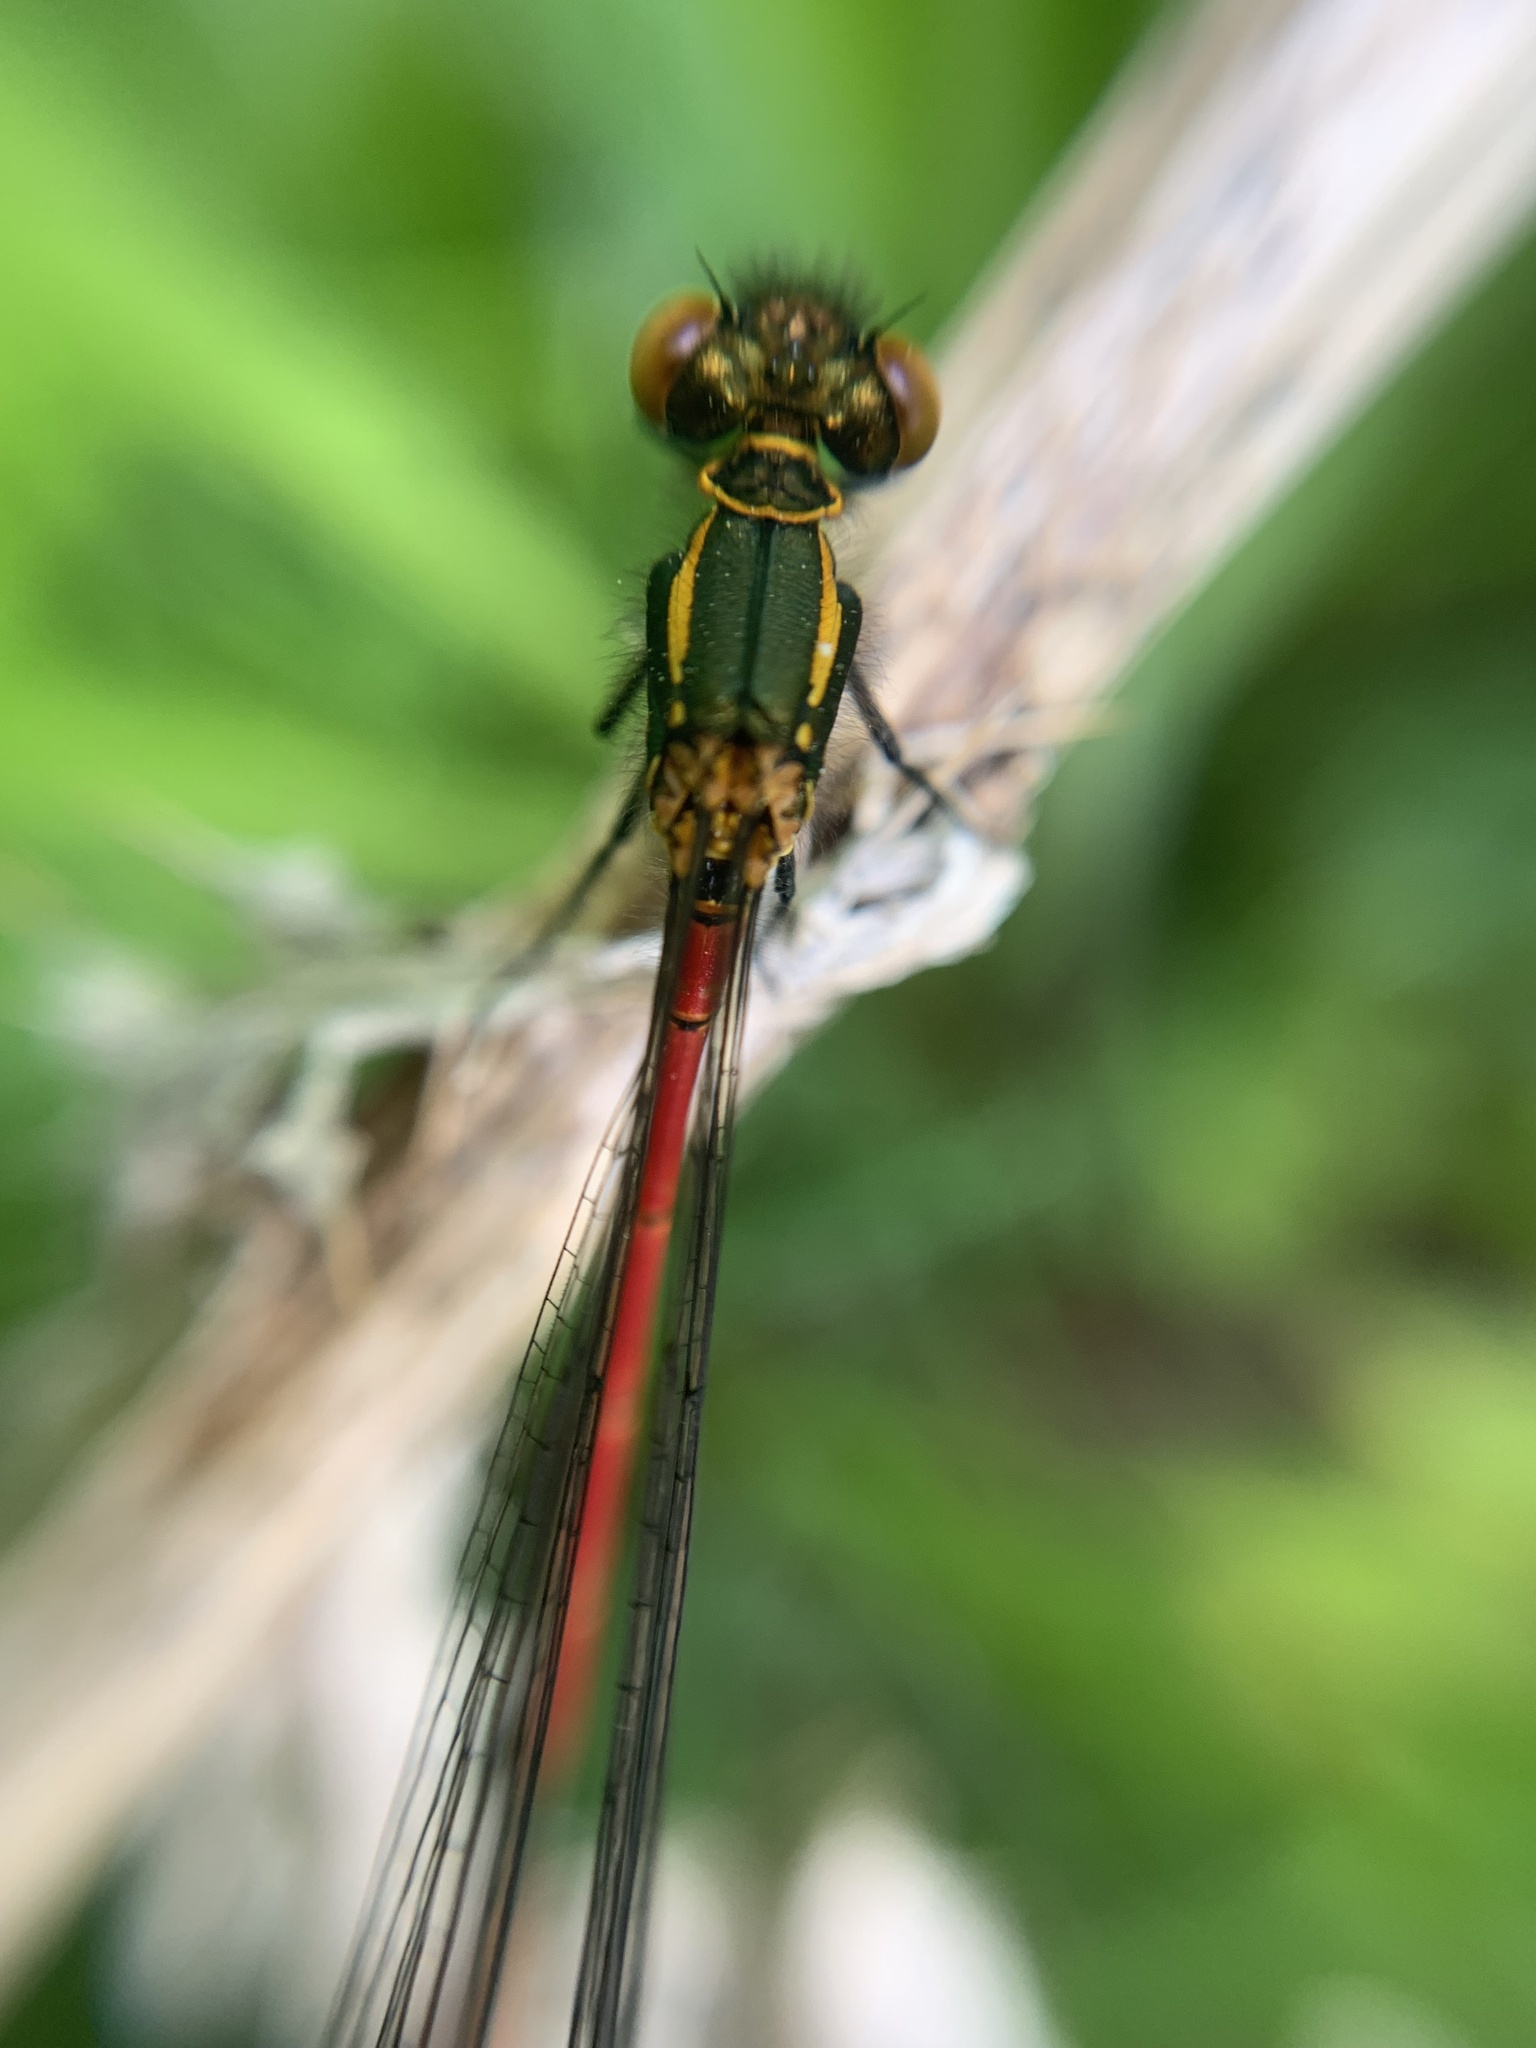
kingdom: Animalia
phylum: Arthropoda
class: Insecta
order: Odonata
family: Coenagrionidae
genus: Pyrrhosoma
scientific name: Pyrrhosoma nymphula
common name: Large red damsel
